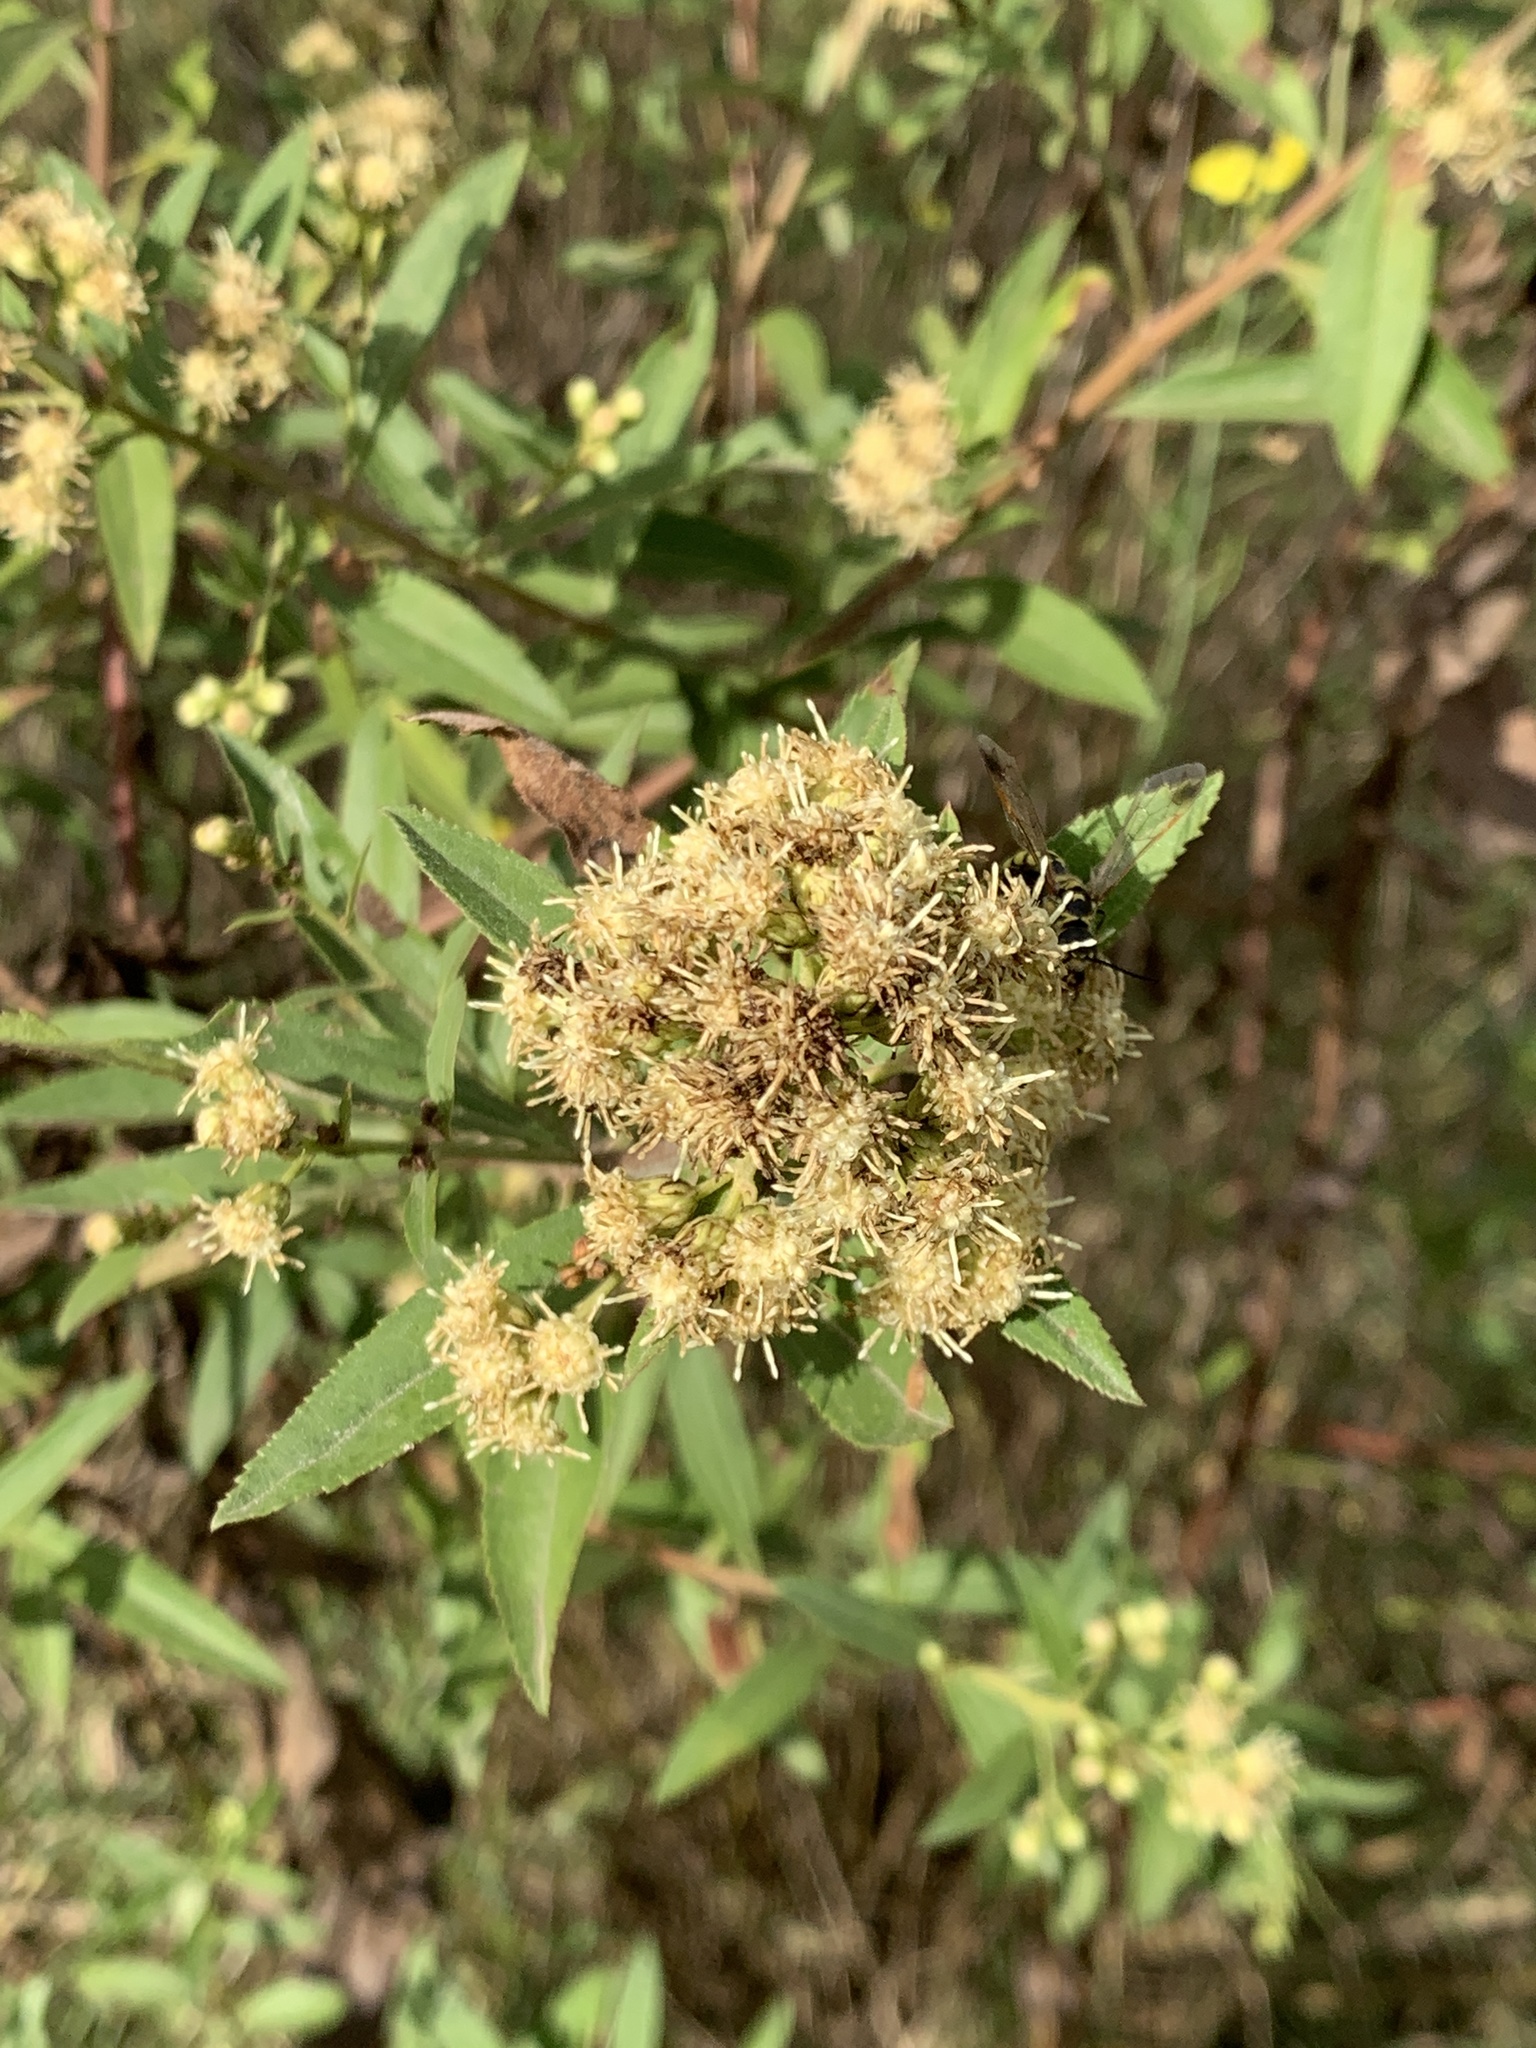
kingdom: Plantae
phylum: Tracheophyta
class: Magnoliopsida
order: Asterales
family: Asteraceae
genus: Baccharis
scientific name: Baccharis punctulata
